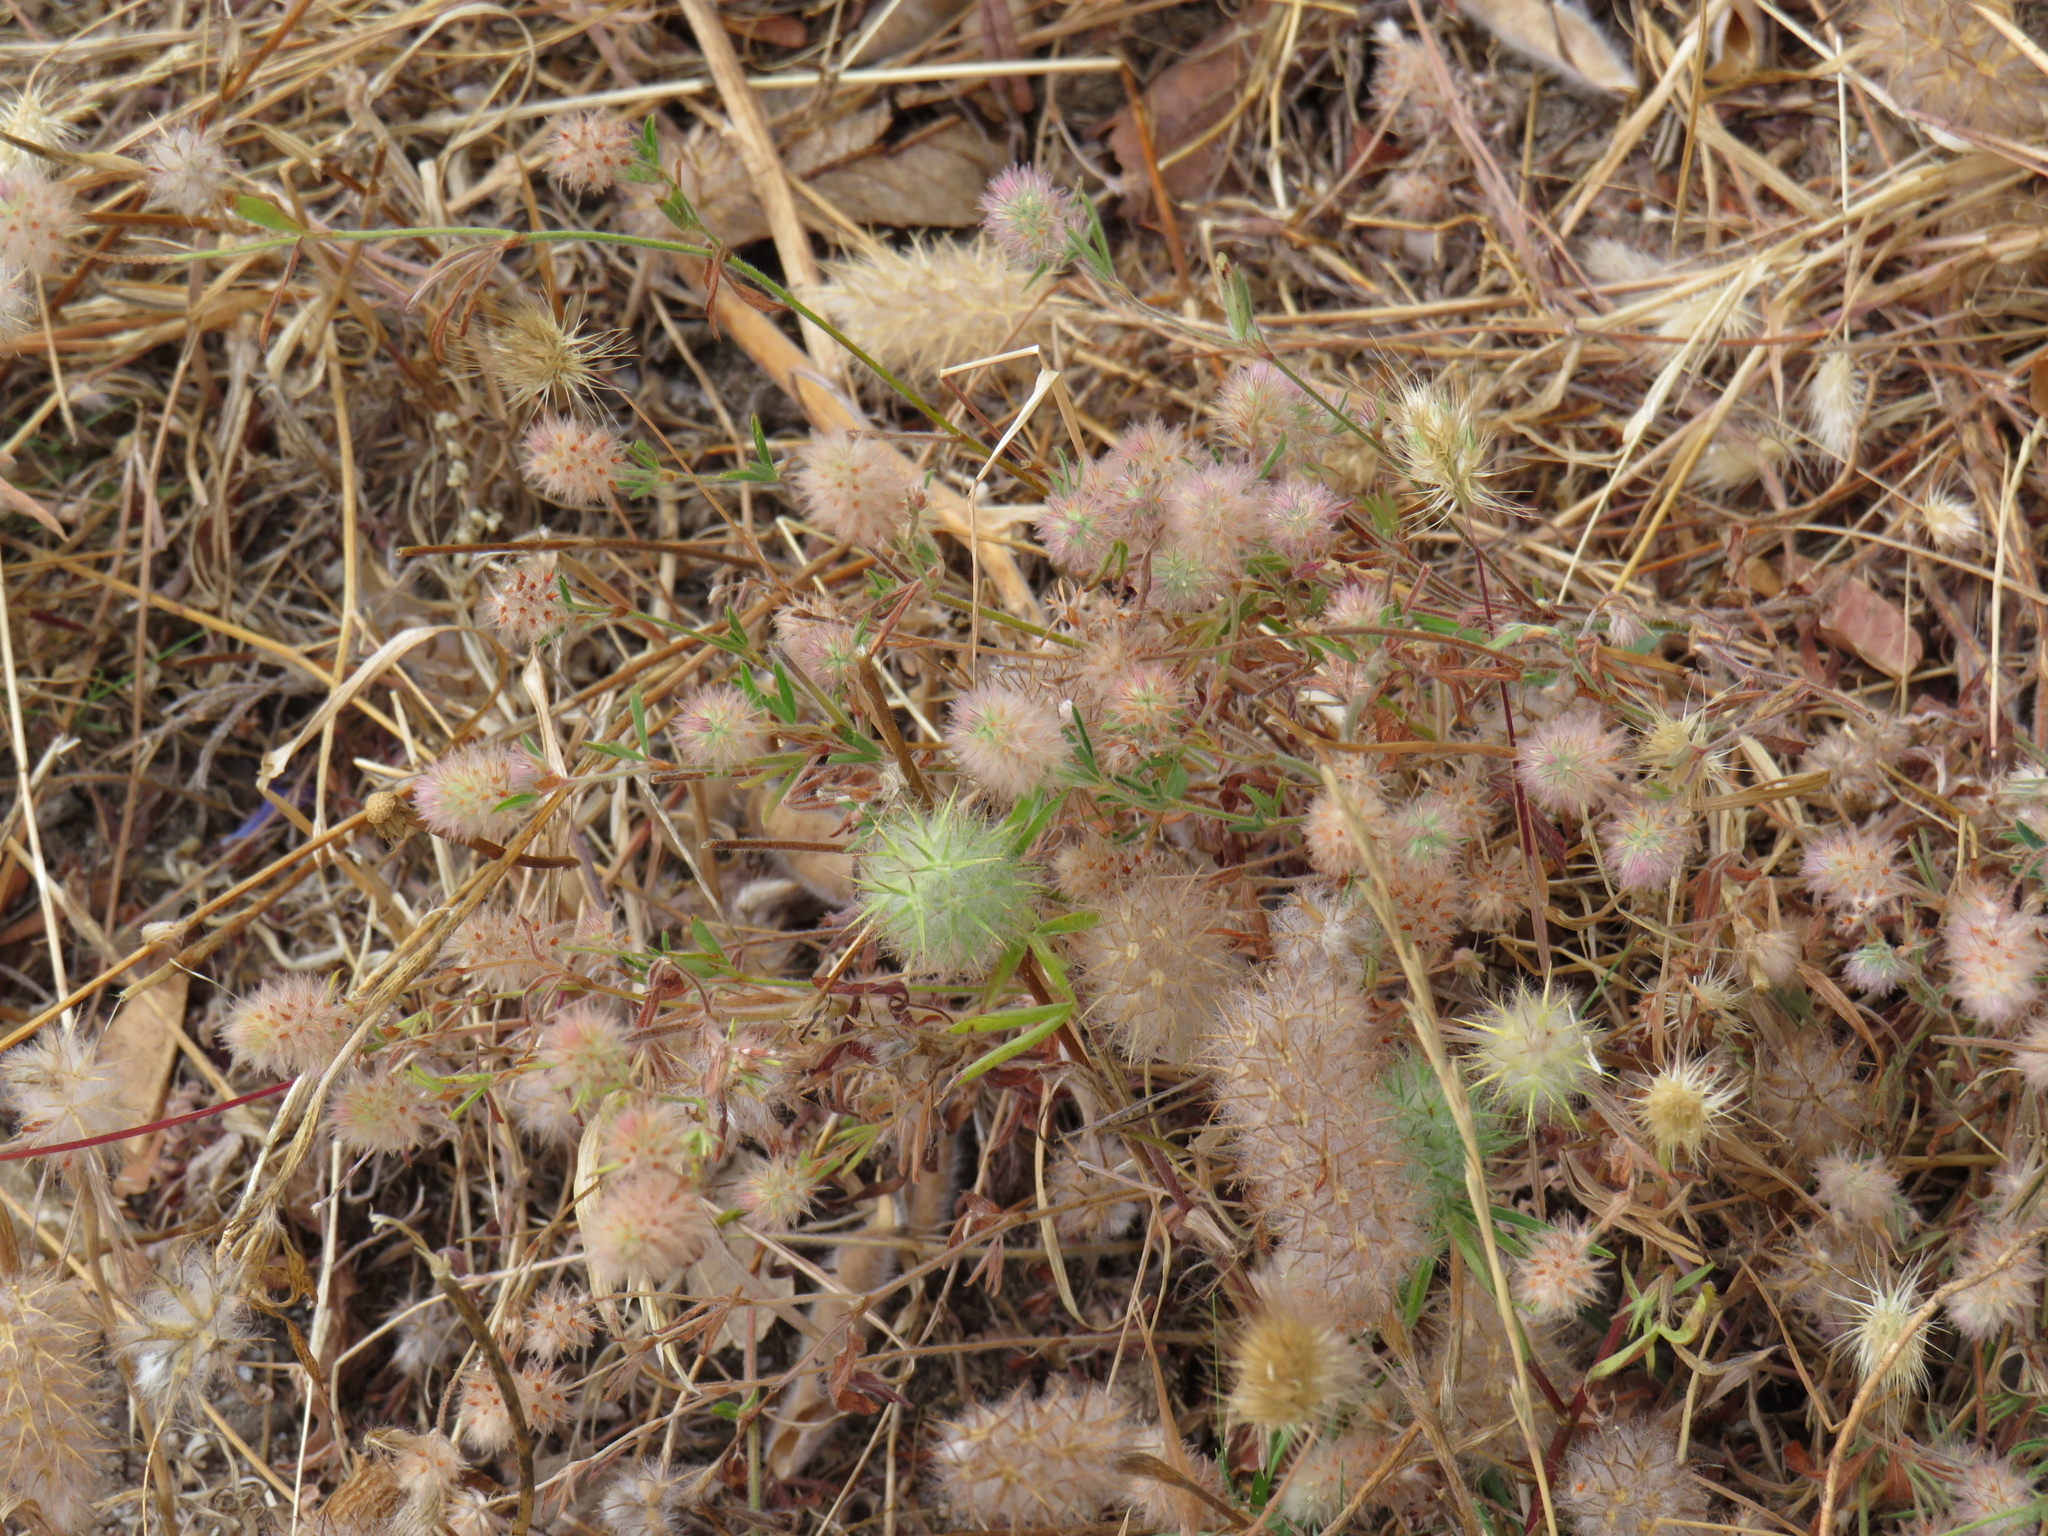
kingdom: Plantae
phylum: Tracheophyta
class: Magnoliopsida
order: Fabales
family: Fabaceae
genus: Trifolium
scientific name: Trifolium angustifolium
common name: Narrow clover
